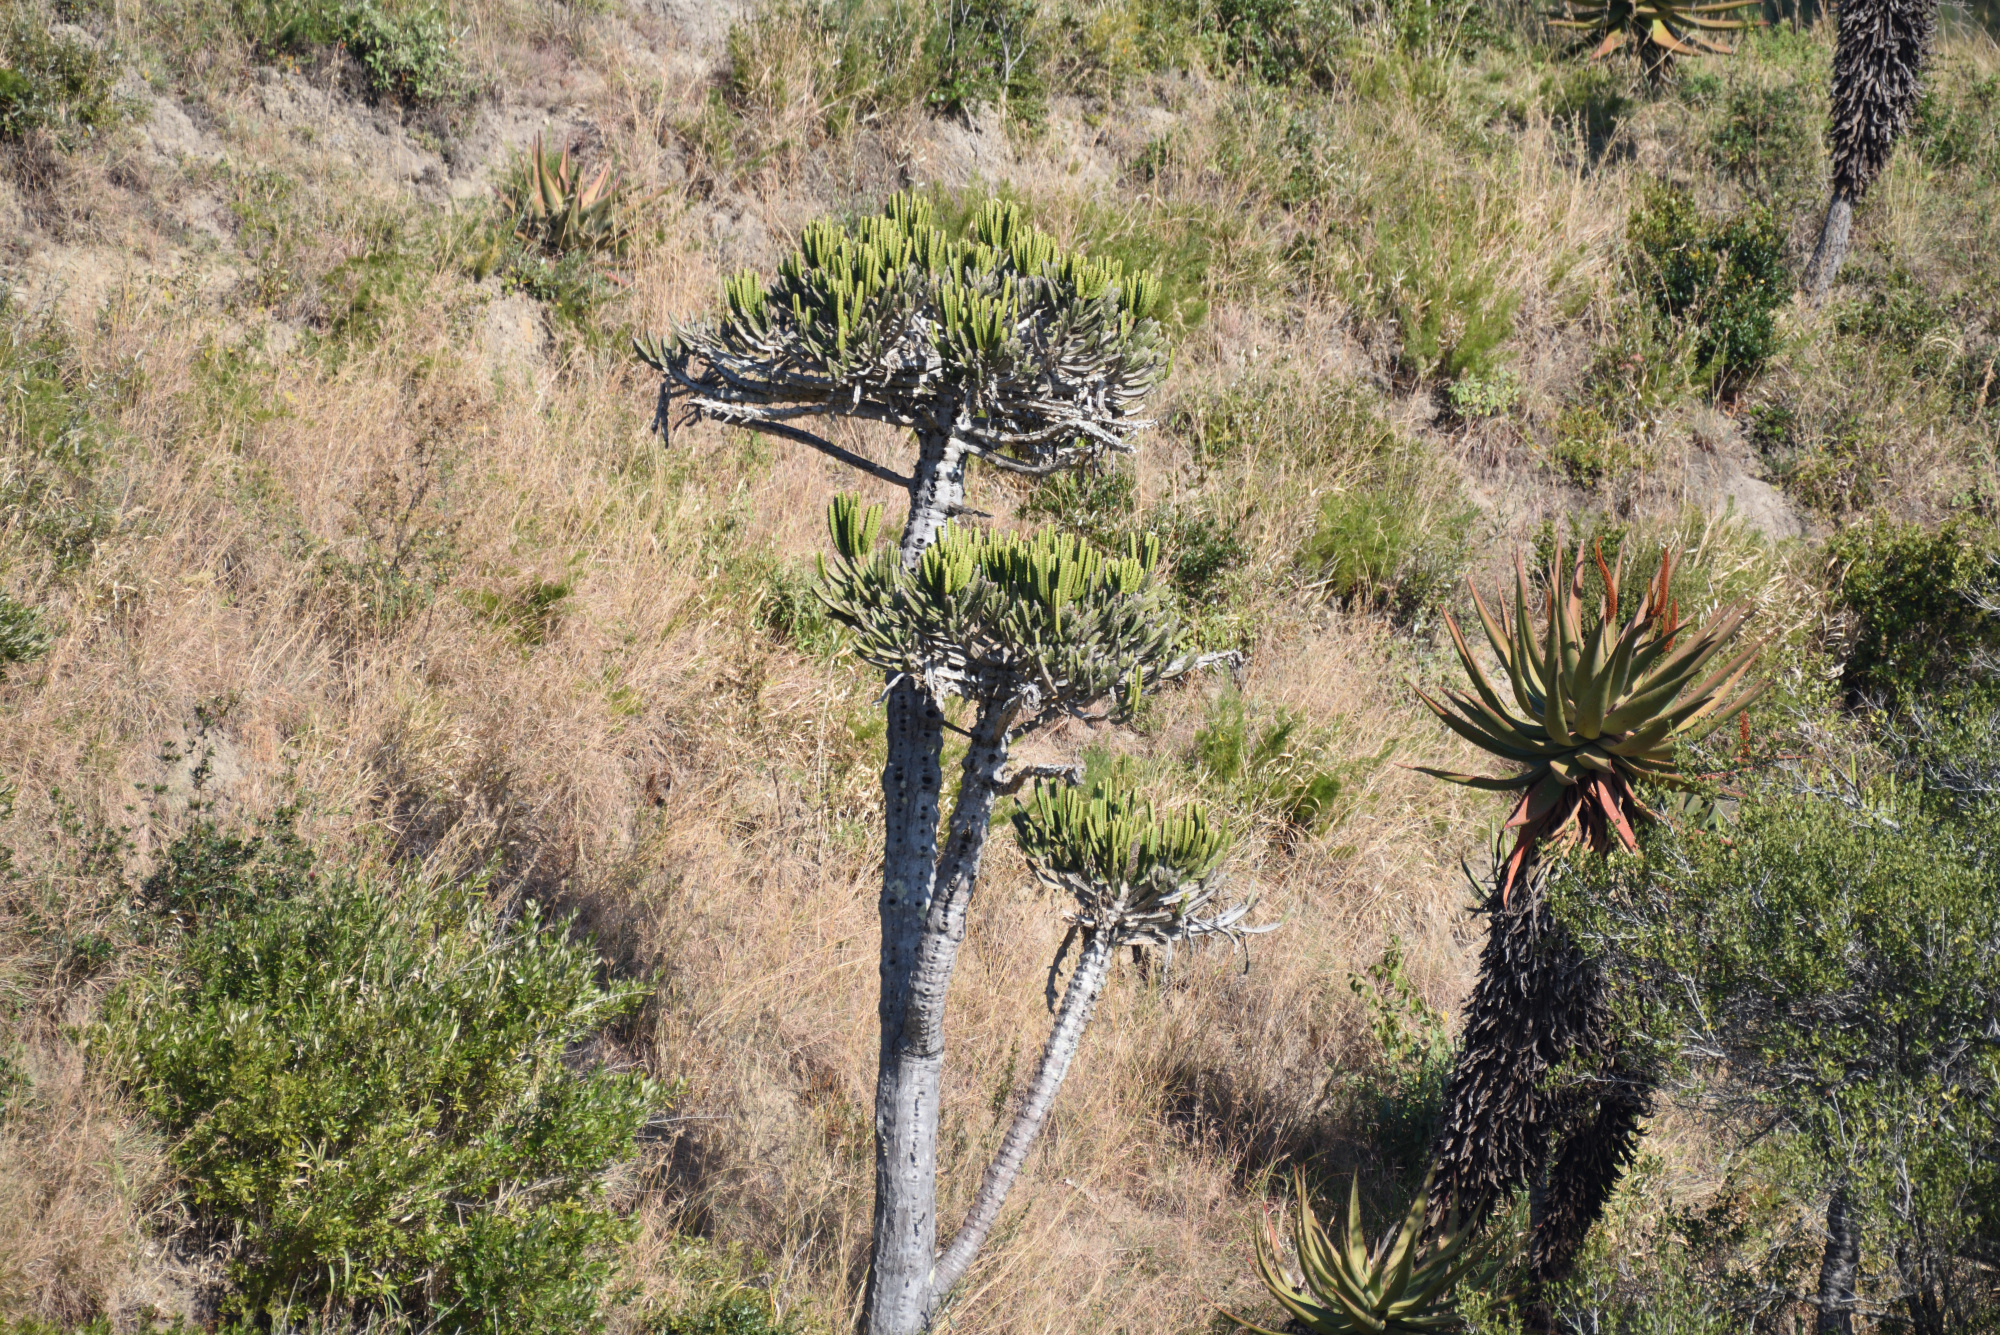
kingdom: Plantae
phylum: Tracheophyta
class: Magnoliopsida
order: Malpighiales
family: Euphorbiaceae
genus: Euphorbia
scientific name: Euphorbia tetragona
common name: Honey euphorbia
